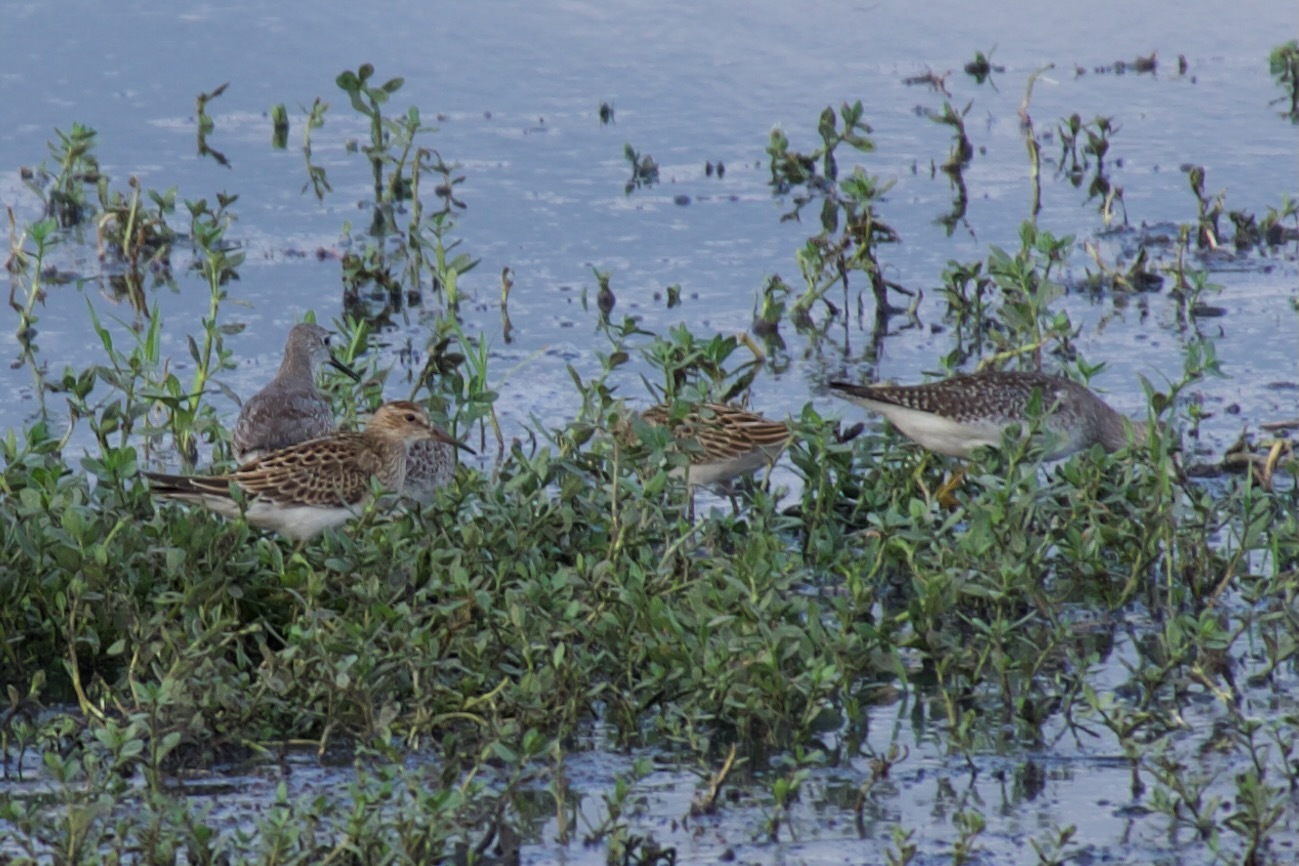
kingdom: Animalia
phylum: Chordata
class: Aves
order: Charadriiformes
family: Scolopacidae
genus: Calidris
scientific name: Calidris melanotos
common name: Pectoral sandpiper
